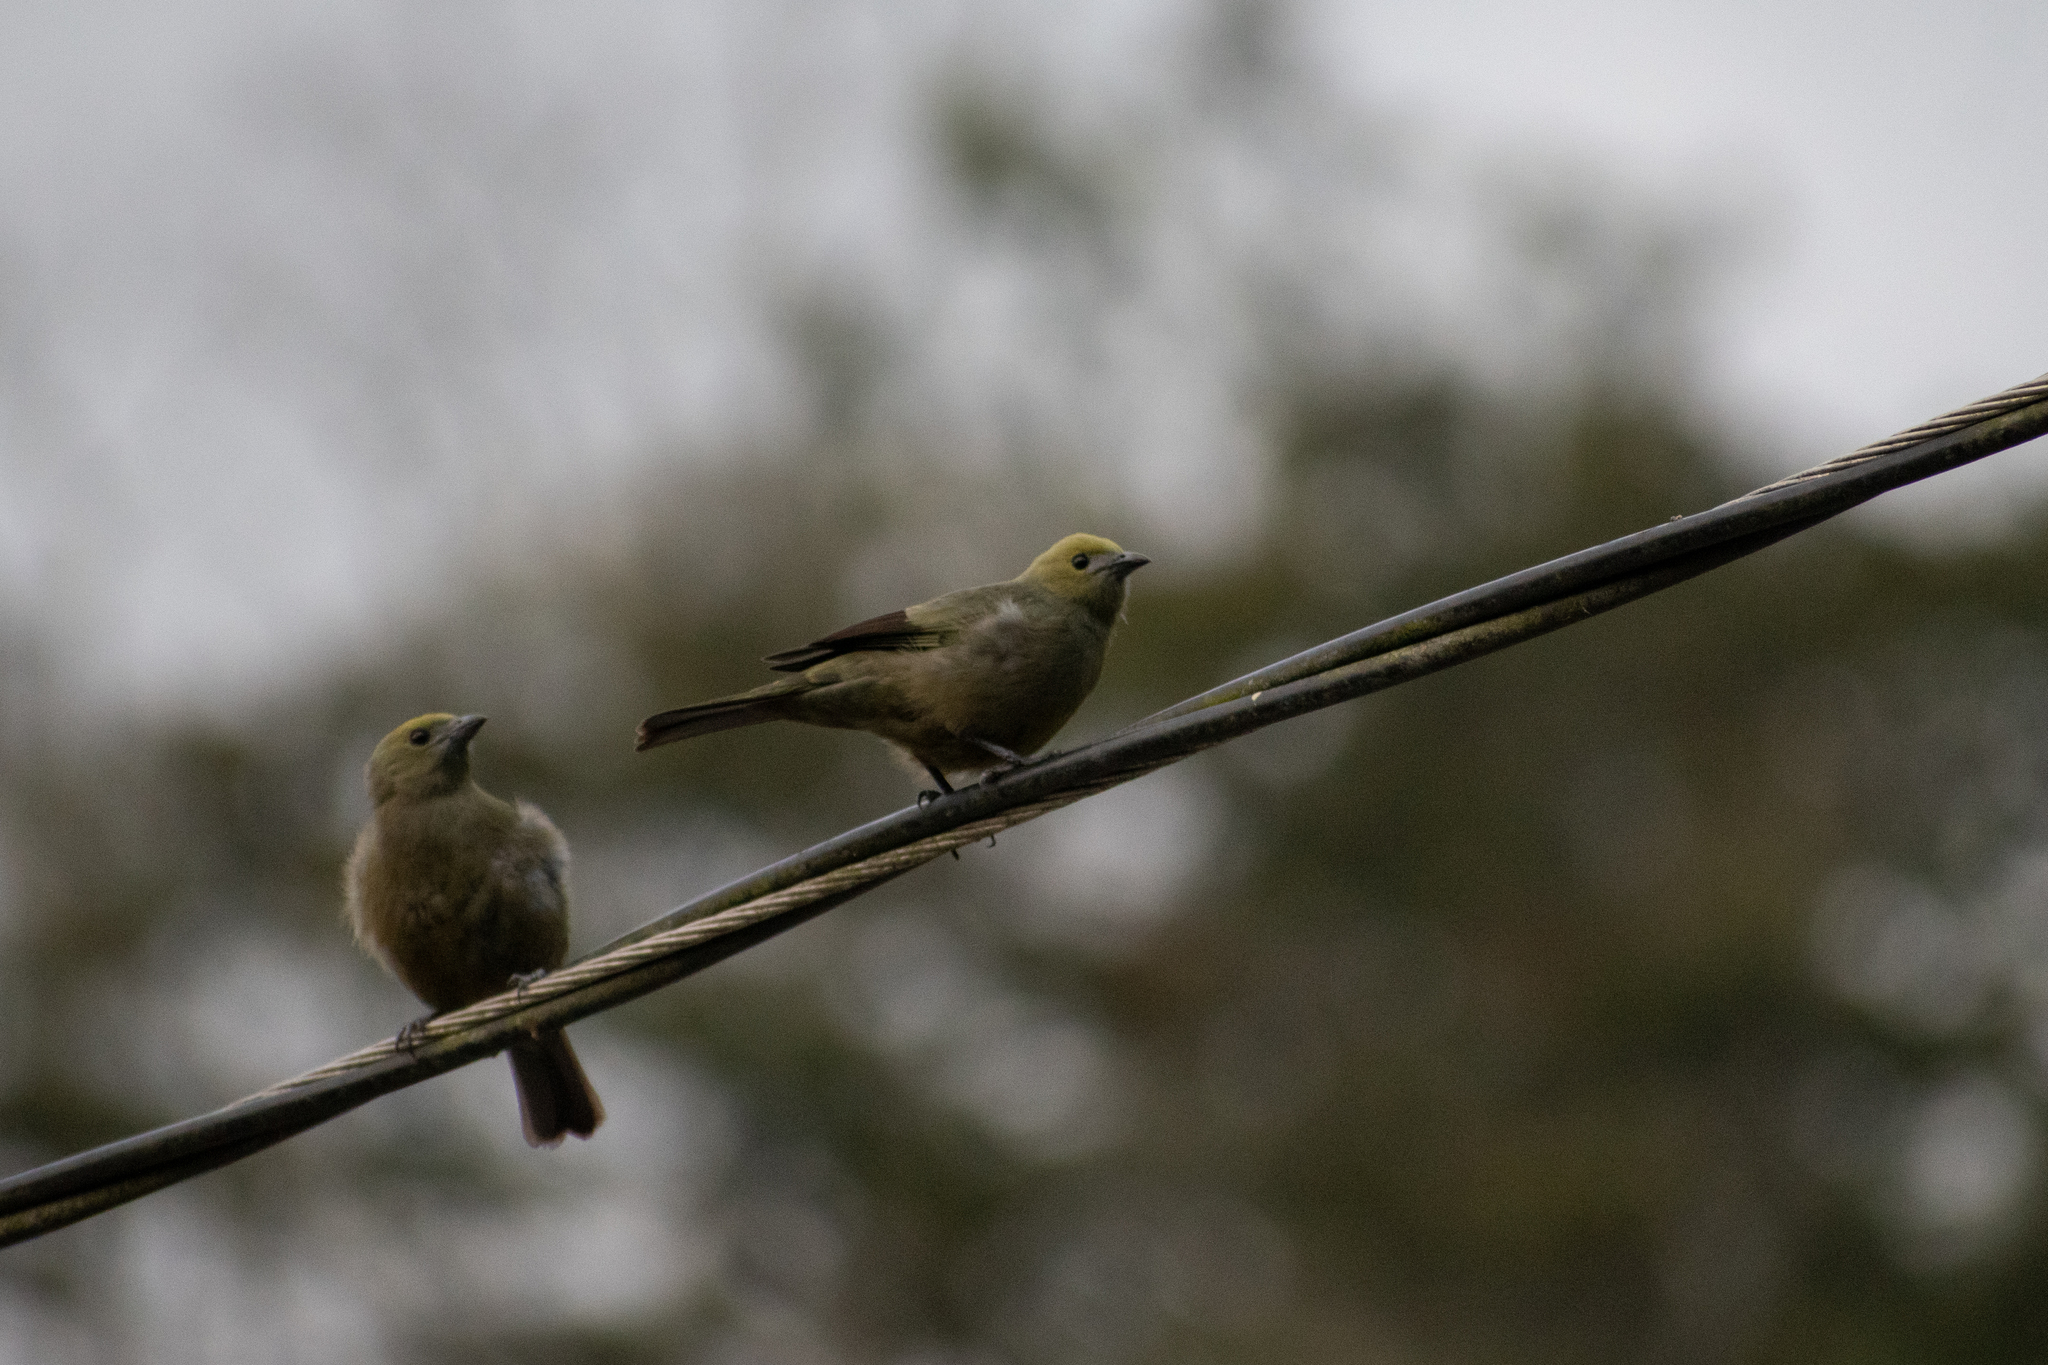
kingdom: Animalia
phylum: Chordata
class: Aves
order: Passeriformes
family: Thraupidae
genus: Thraupis
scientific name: Thraupis palmarum
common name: Palm tanager
